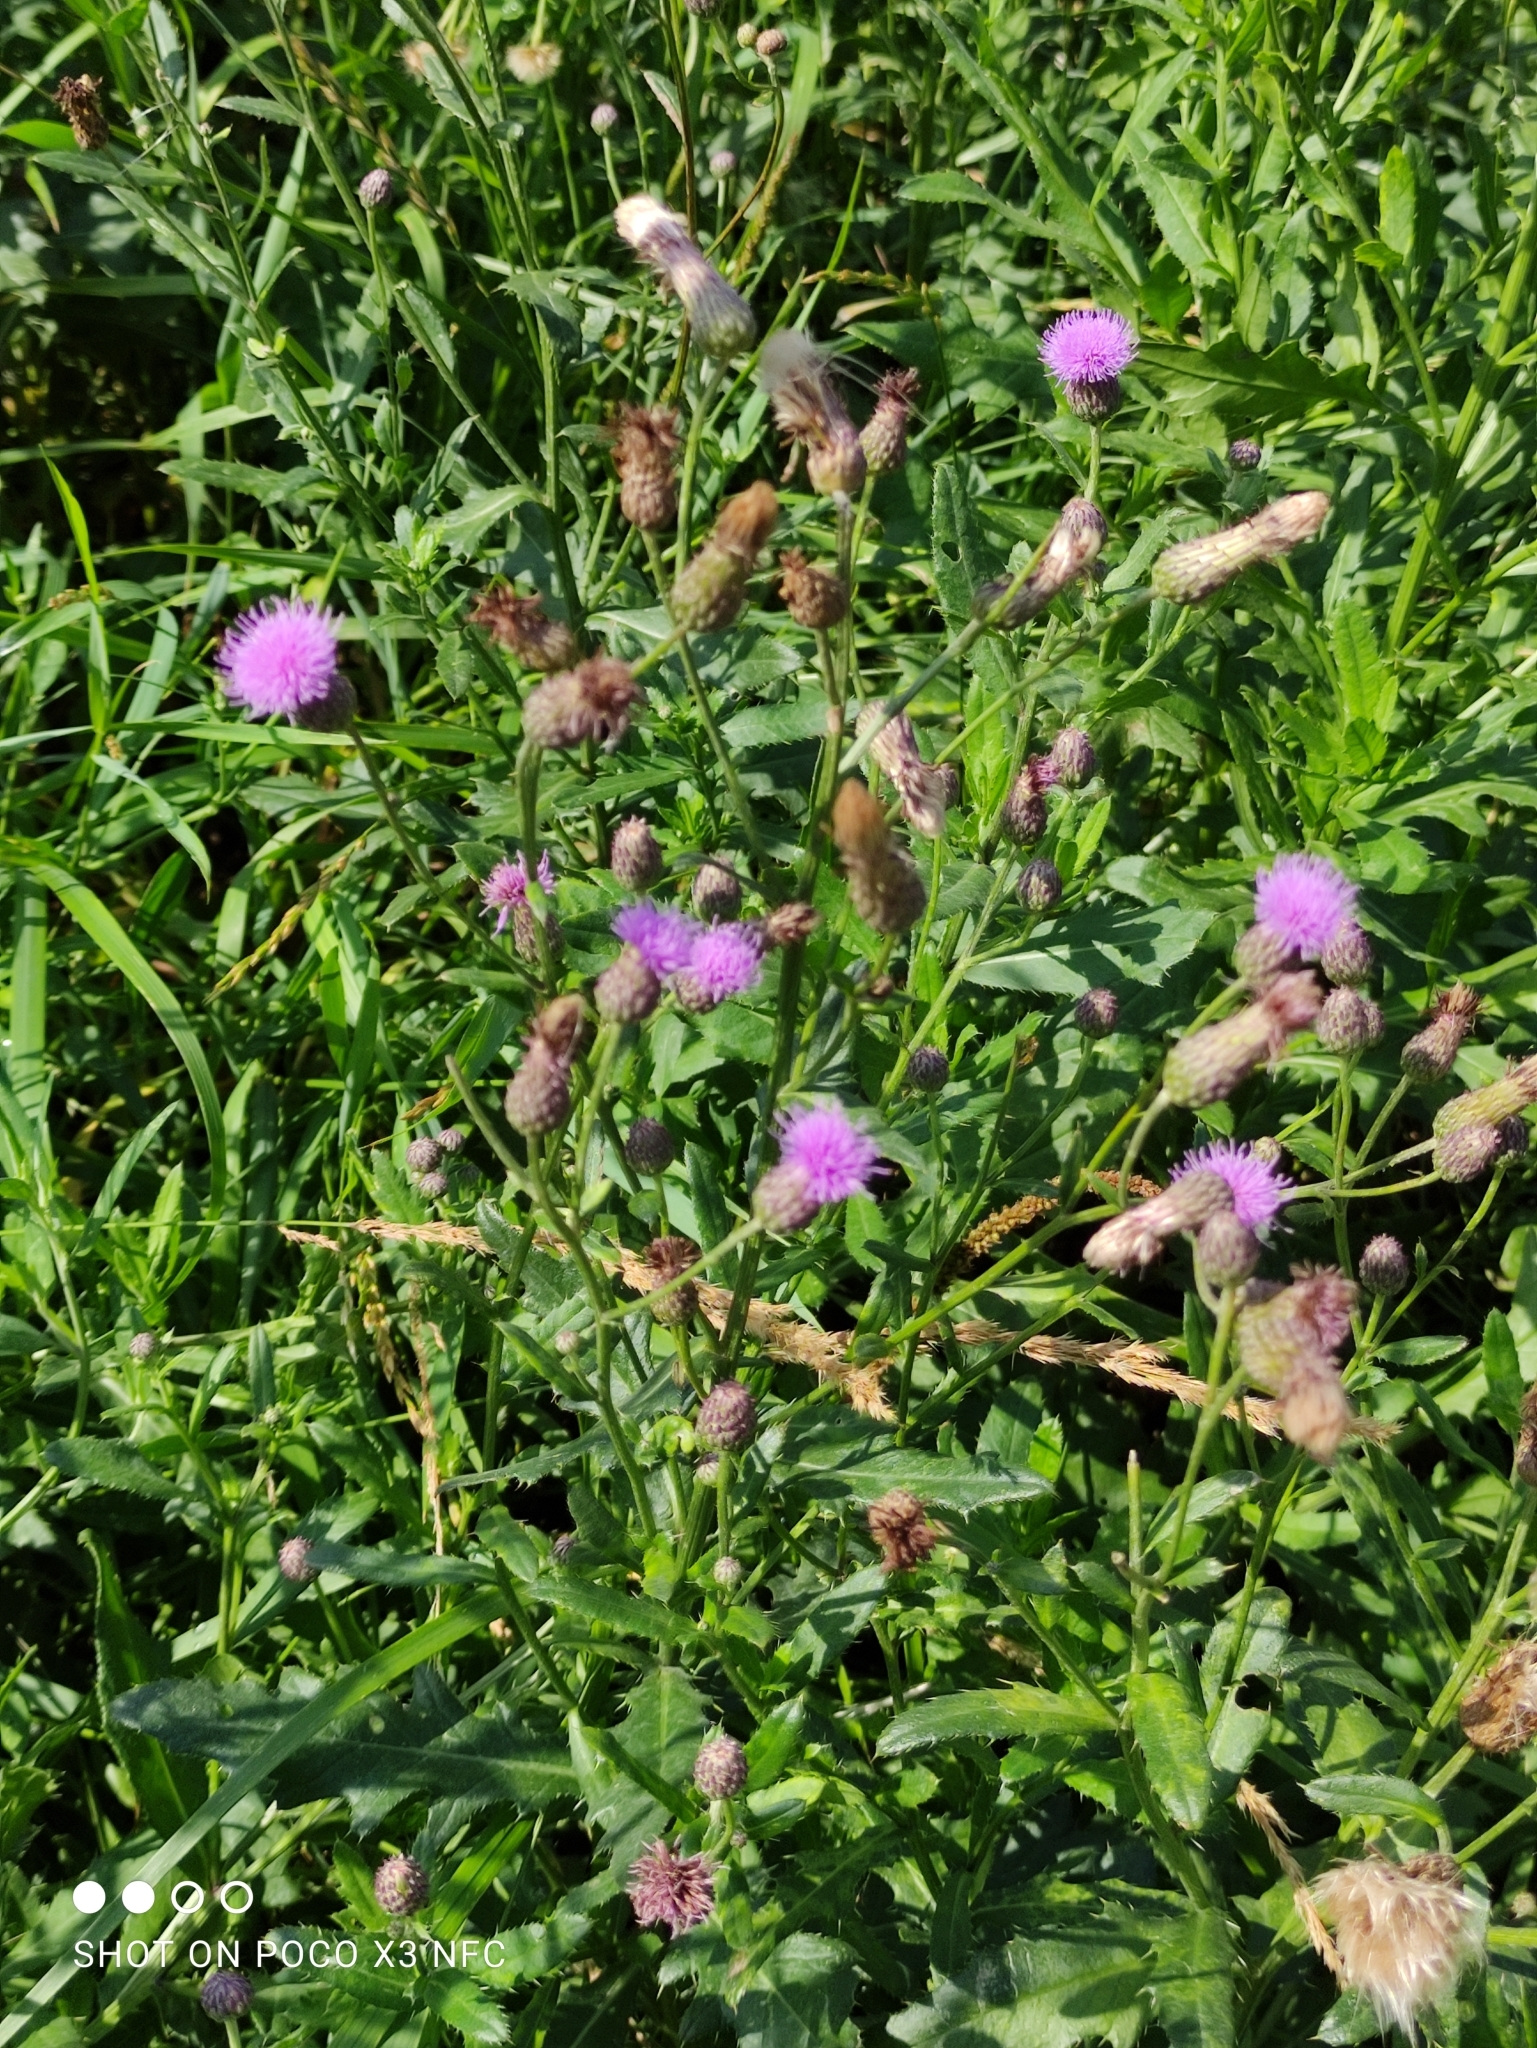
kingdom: Plantae
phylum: Tracheophyta
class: Magnoliopsida
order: Asterales
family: Asteraceae
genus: Cirsium
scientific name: Cirsium arvense
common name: Creeping thistle
